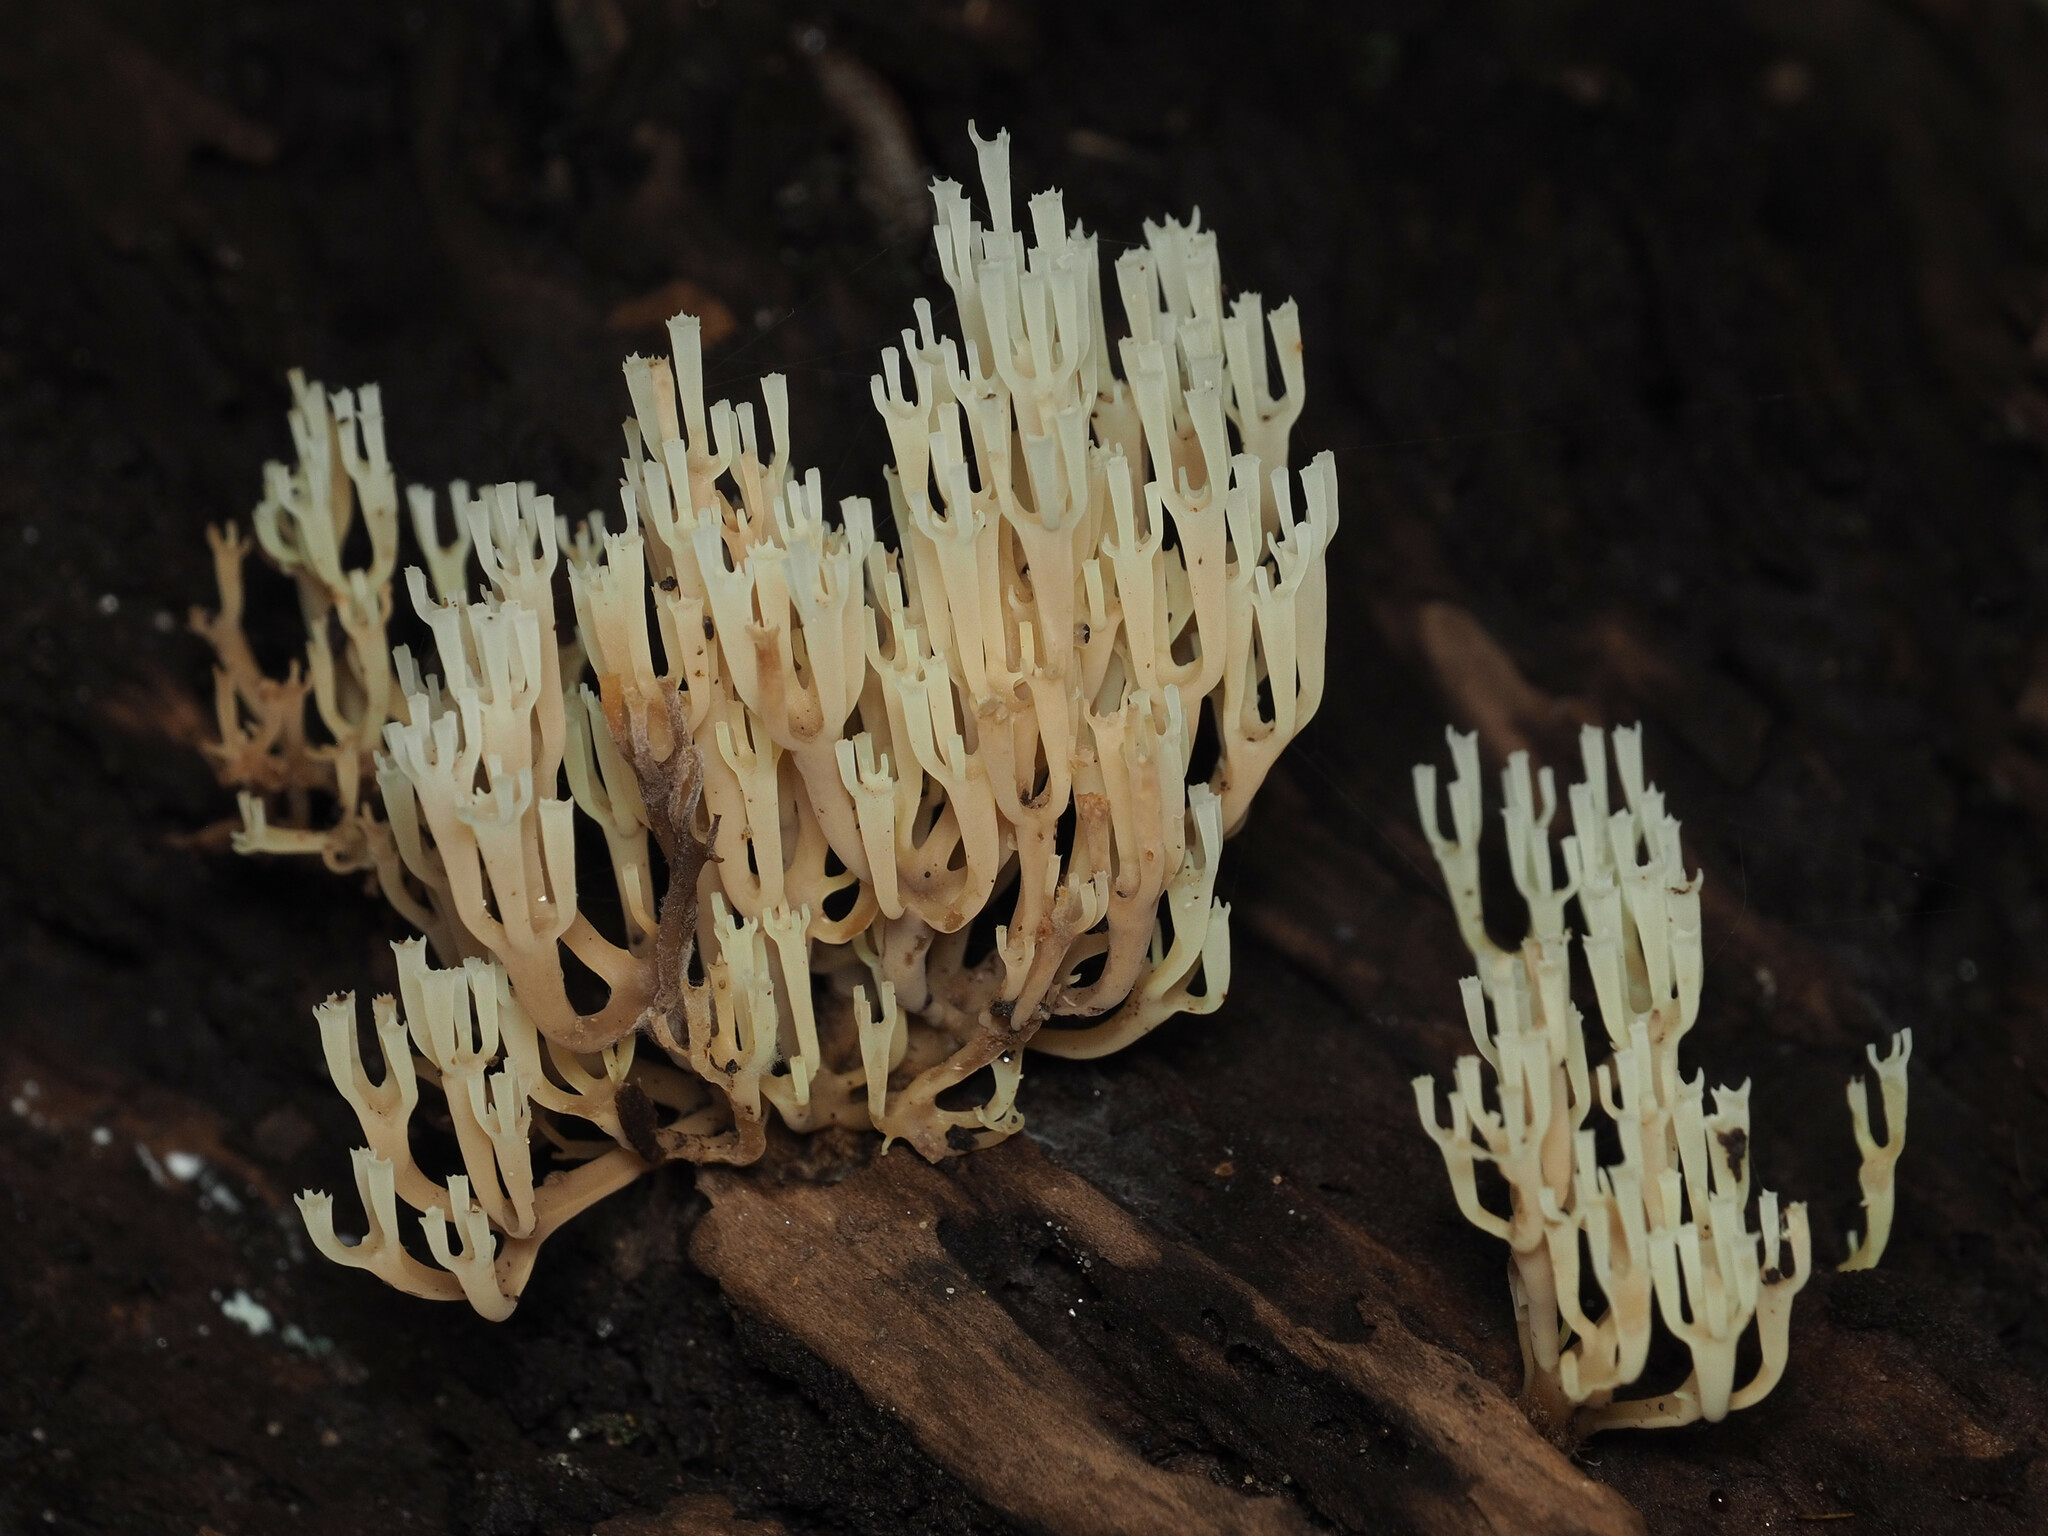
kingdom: Fungi
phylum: Basidiomycota
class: Agaricomycetes
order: Russulales
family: Auriscalpiaceae
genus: Artomyces
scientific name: Artomyces pyxidatus
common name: Crown-tipped coral fungus
